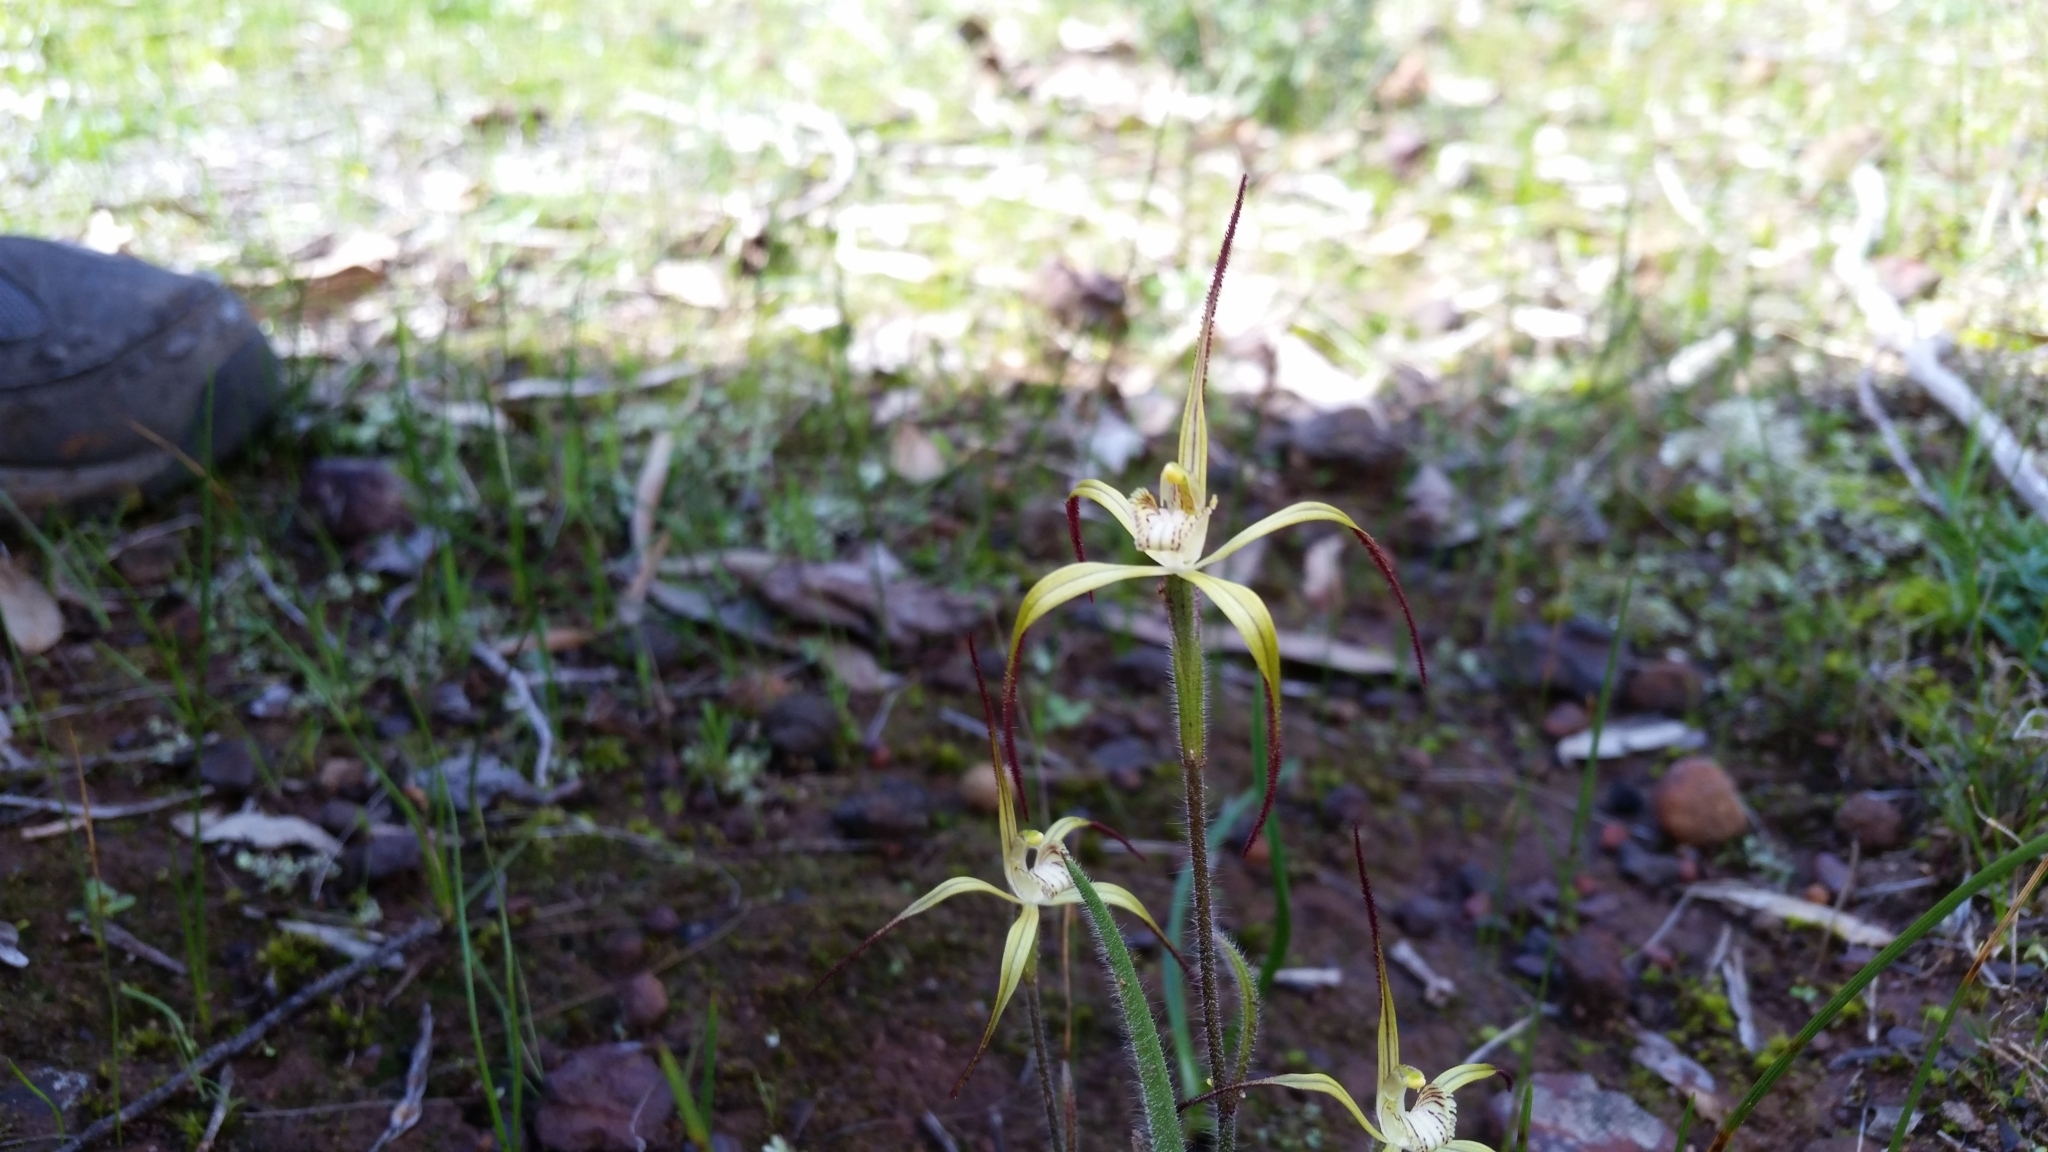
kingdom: Plantae
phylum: Tracheophyta
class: Liliopsida
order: Asparagales
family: Orchidaceae
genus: Caladenia
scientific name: Caladenia xantha
